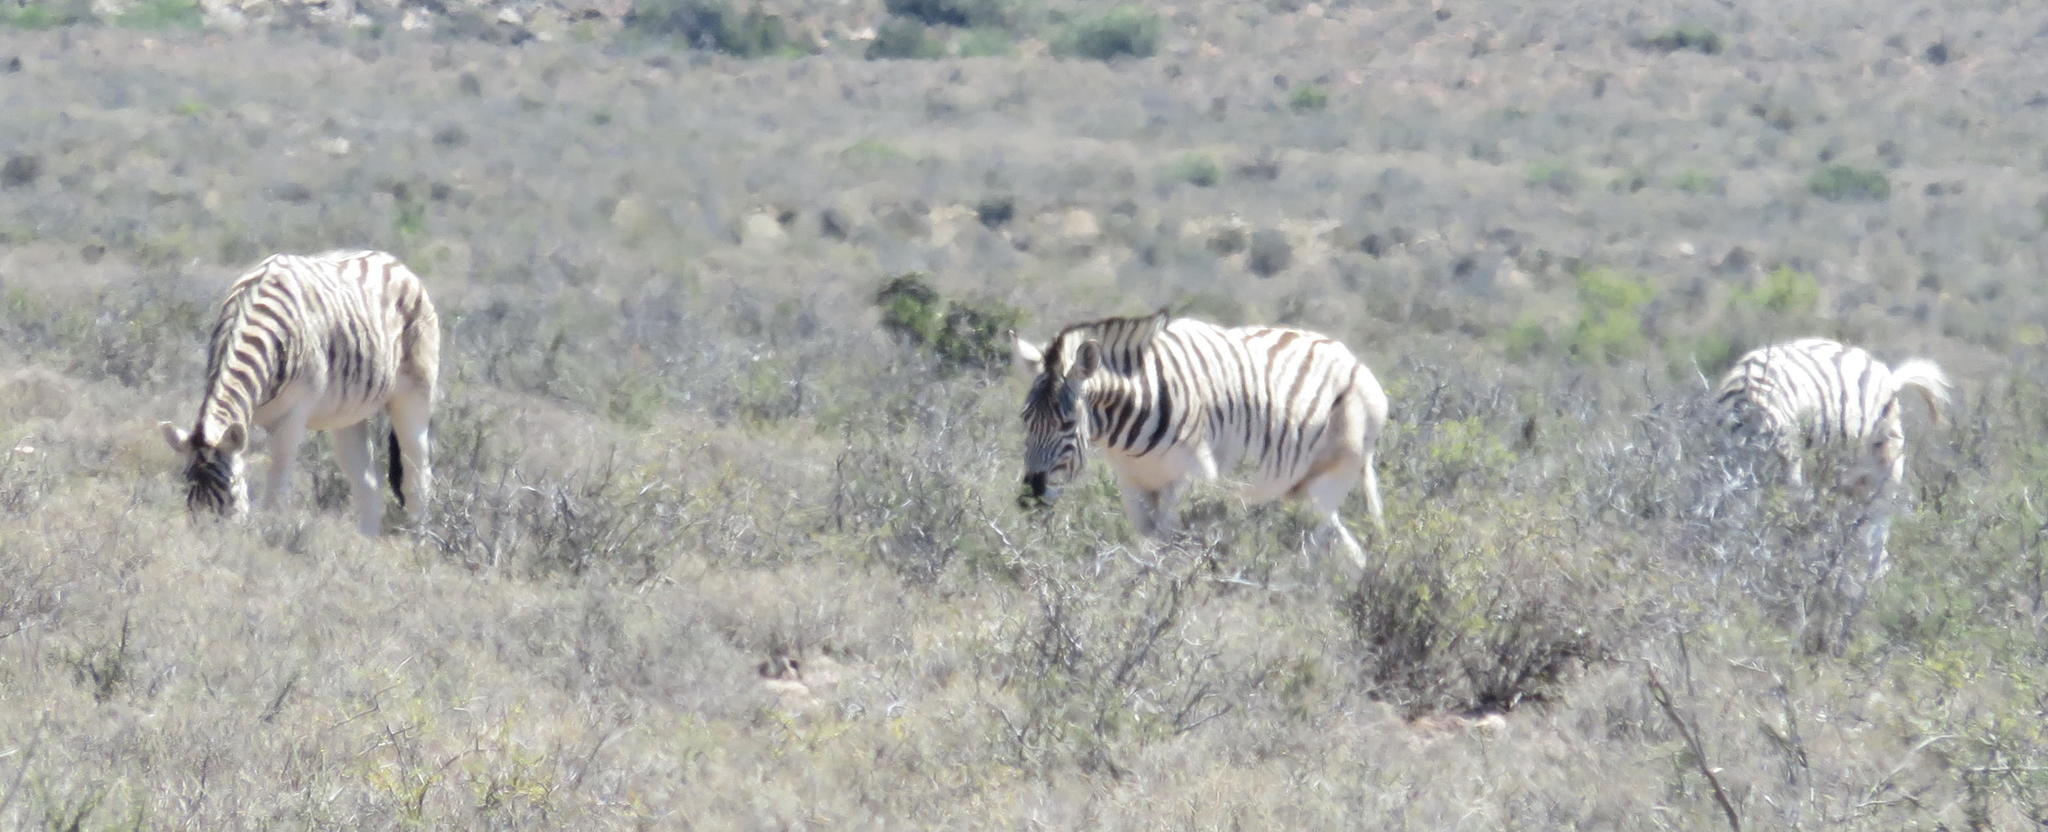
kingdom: Animalia
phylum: Chordata
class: Mammalia
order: Perissodactyla
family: Equidae
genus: Equus
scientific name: Equus quagga
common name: Plains zebra
